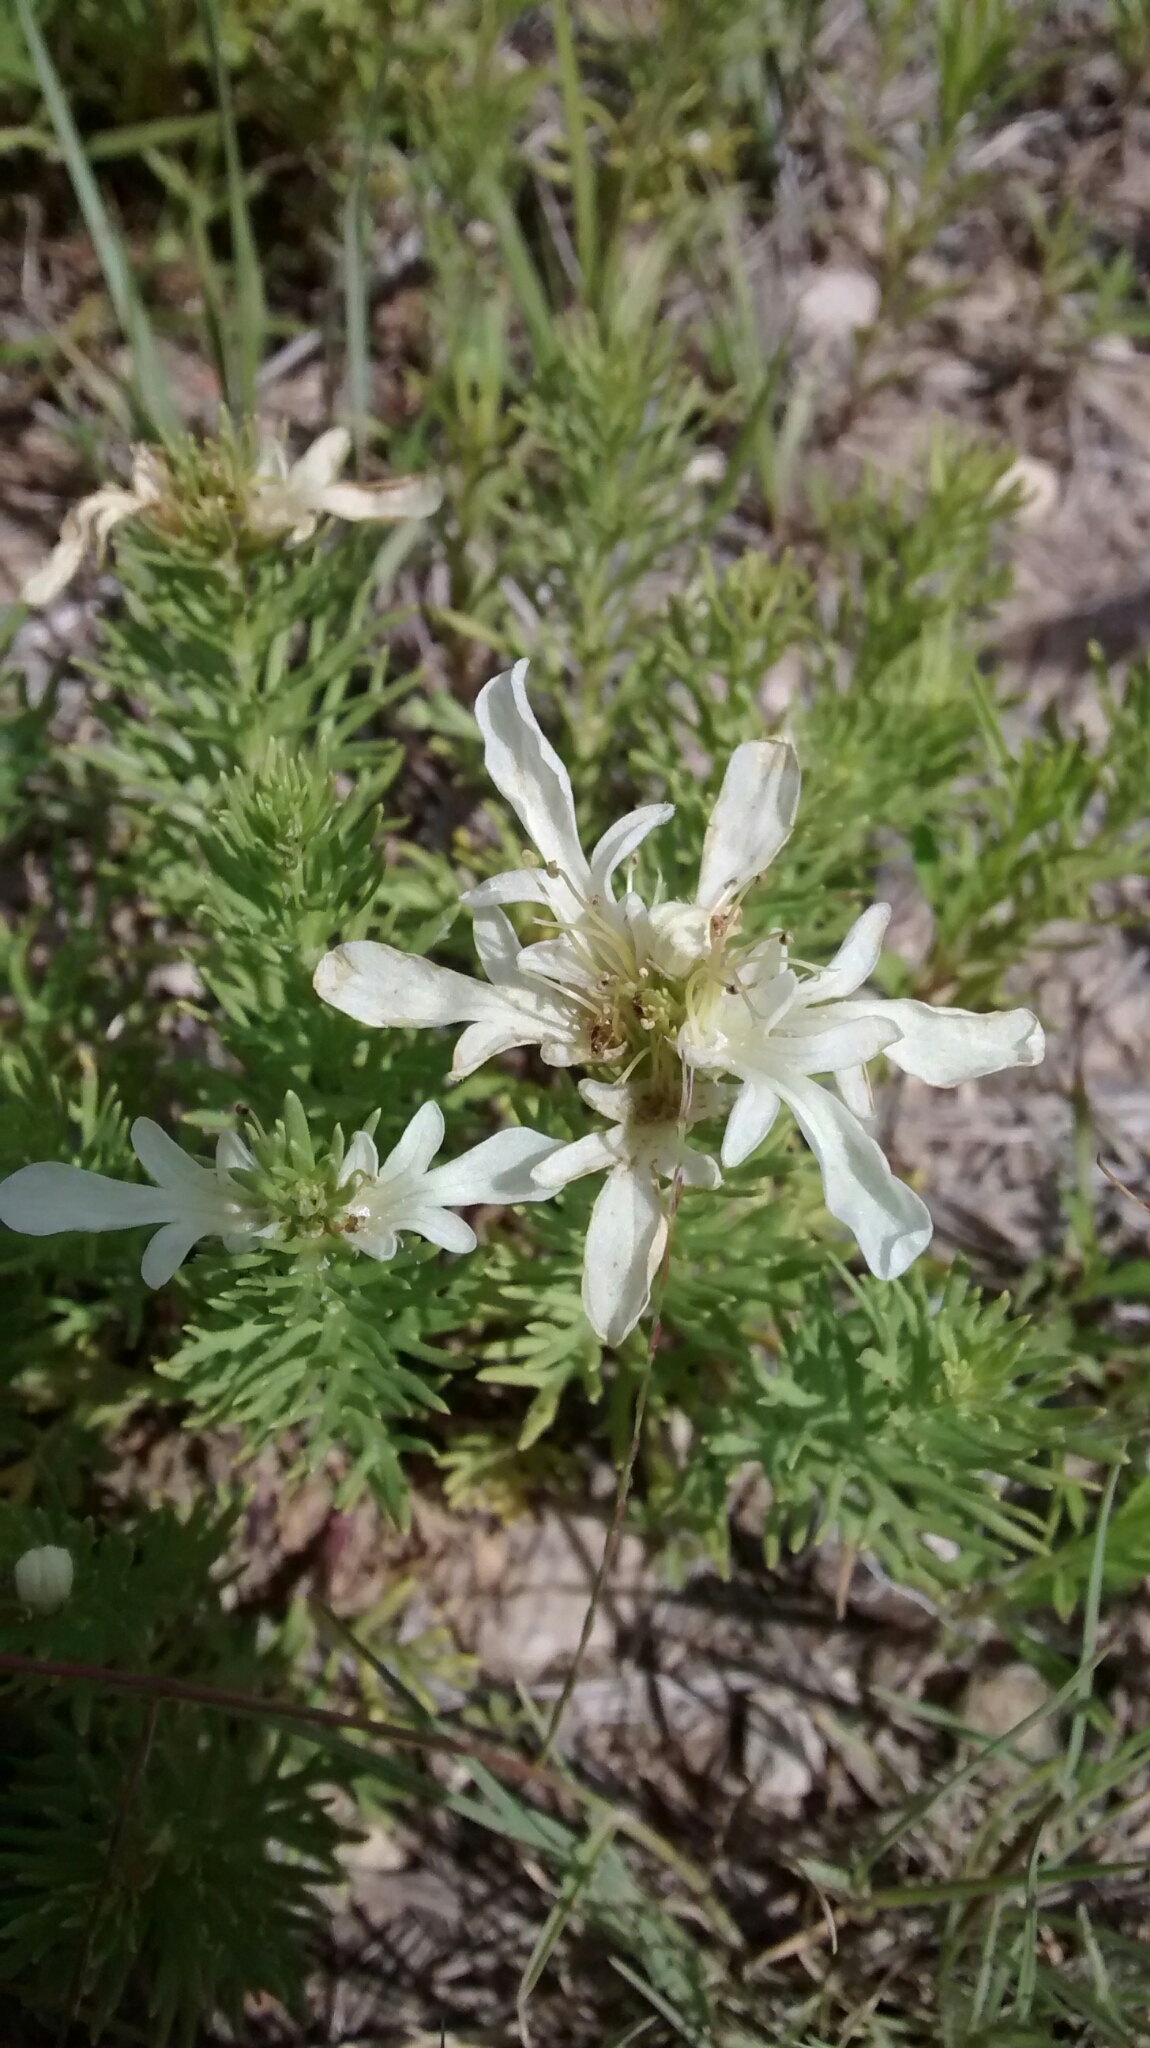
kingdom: Plantae
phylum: Tracheophyta
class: Magnoliopsida
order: Lamiales
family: Lamiaceae
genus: Teucrium
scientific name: Teucrium laciniatum
